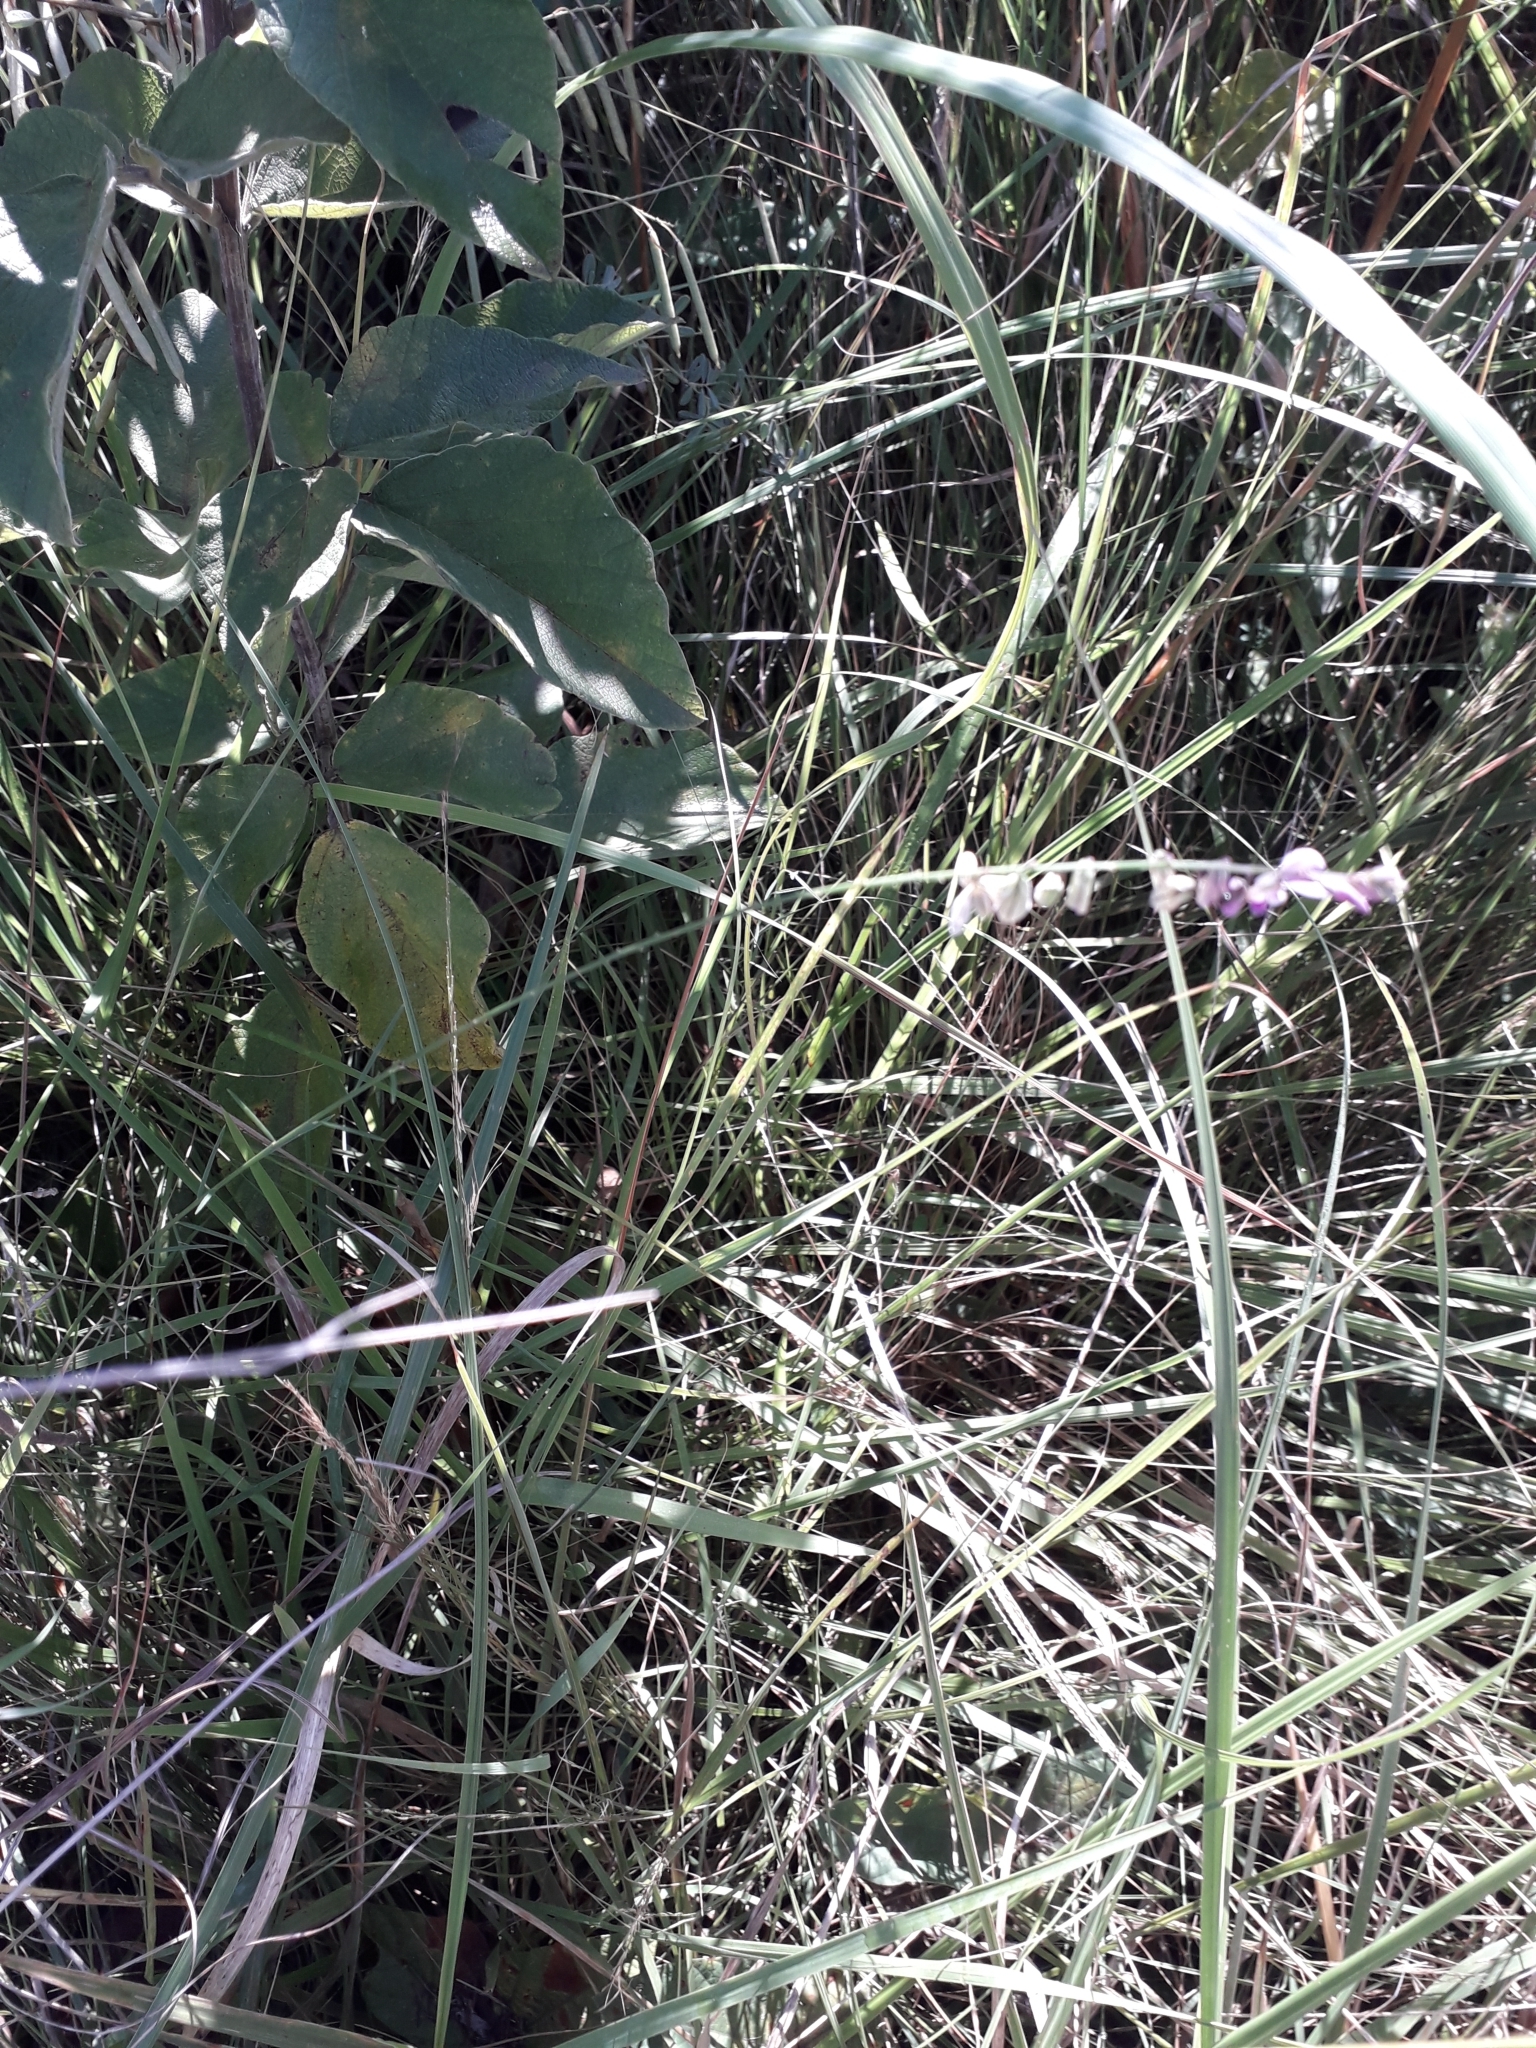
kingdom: Plantae
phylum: Tracheophyta
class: Magnoliopsida
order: Fabales
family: Polygalaceae
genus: Polygala
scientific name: Polygala hottentotta
